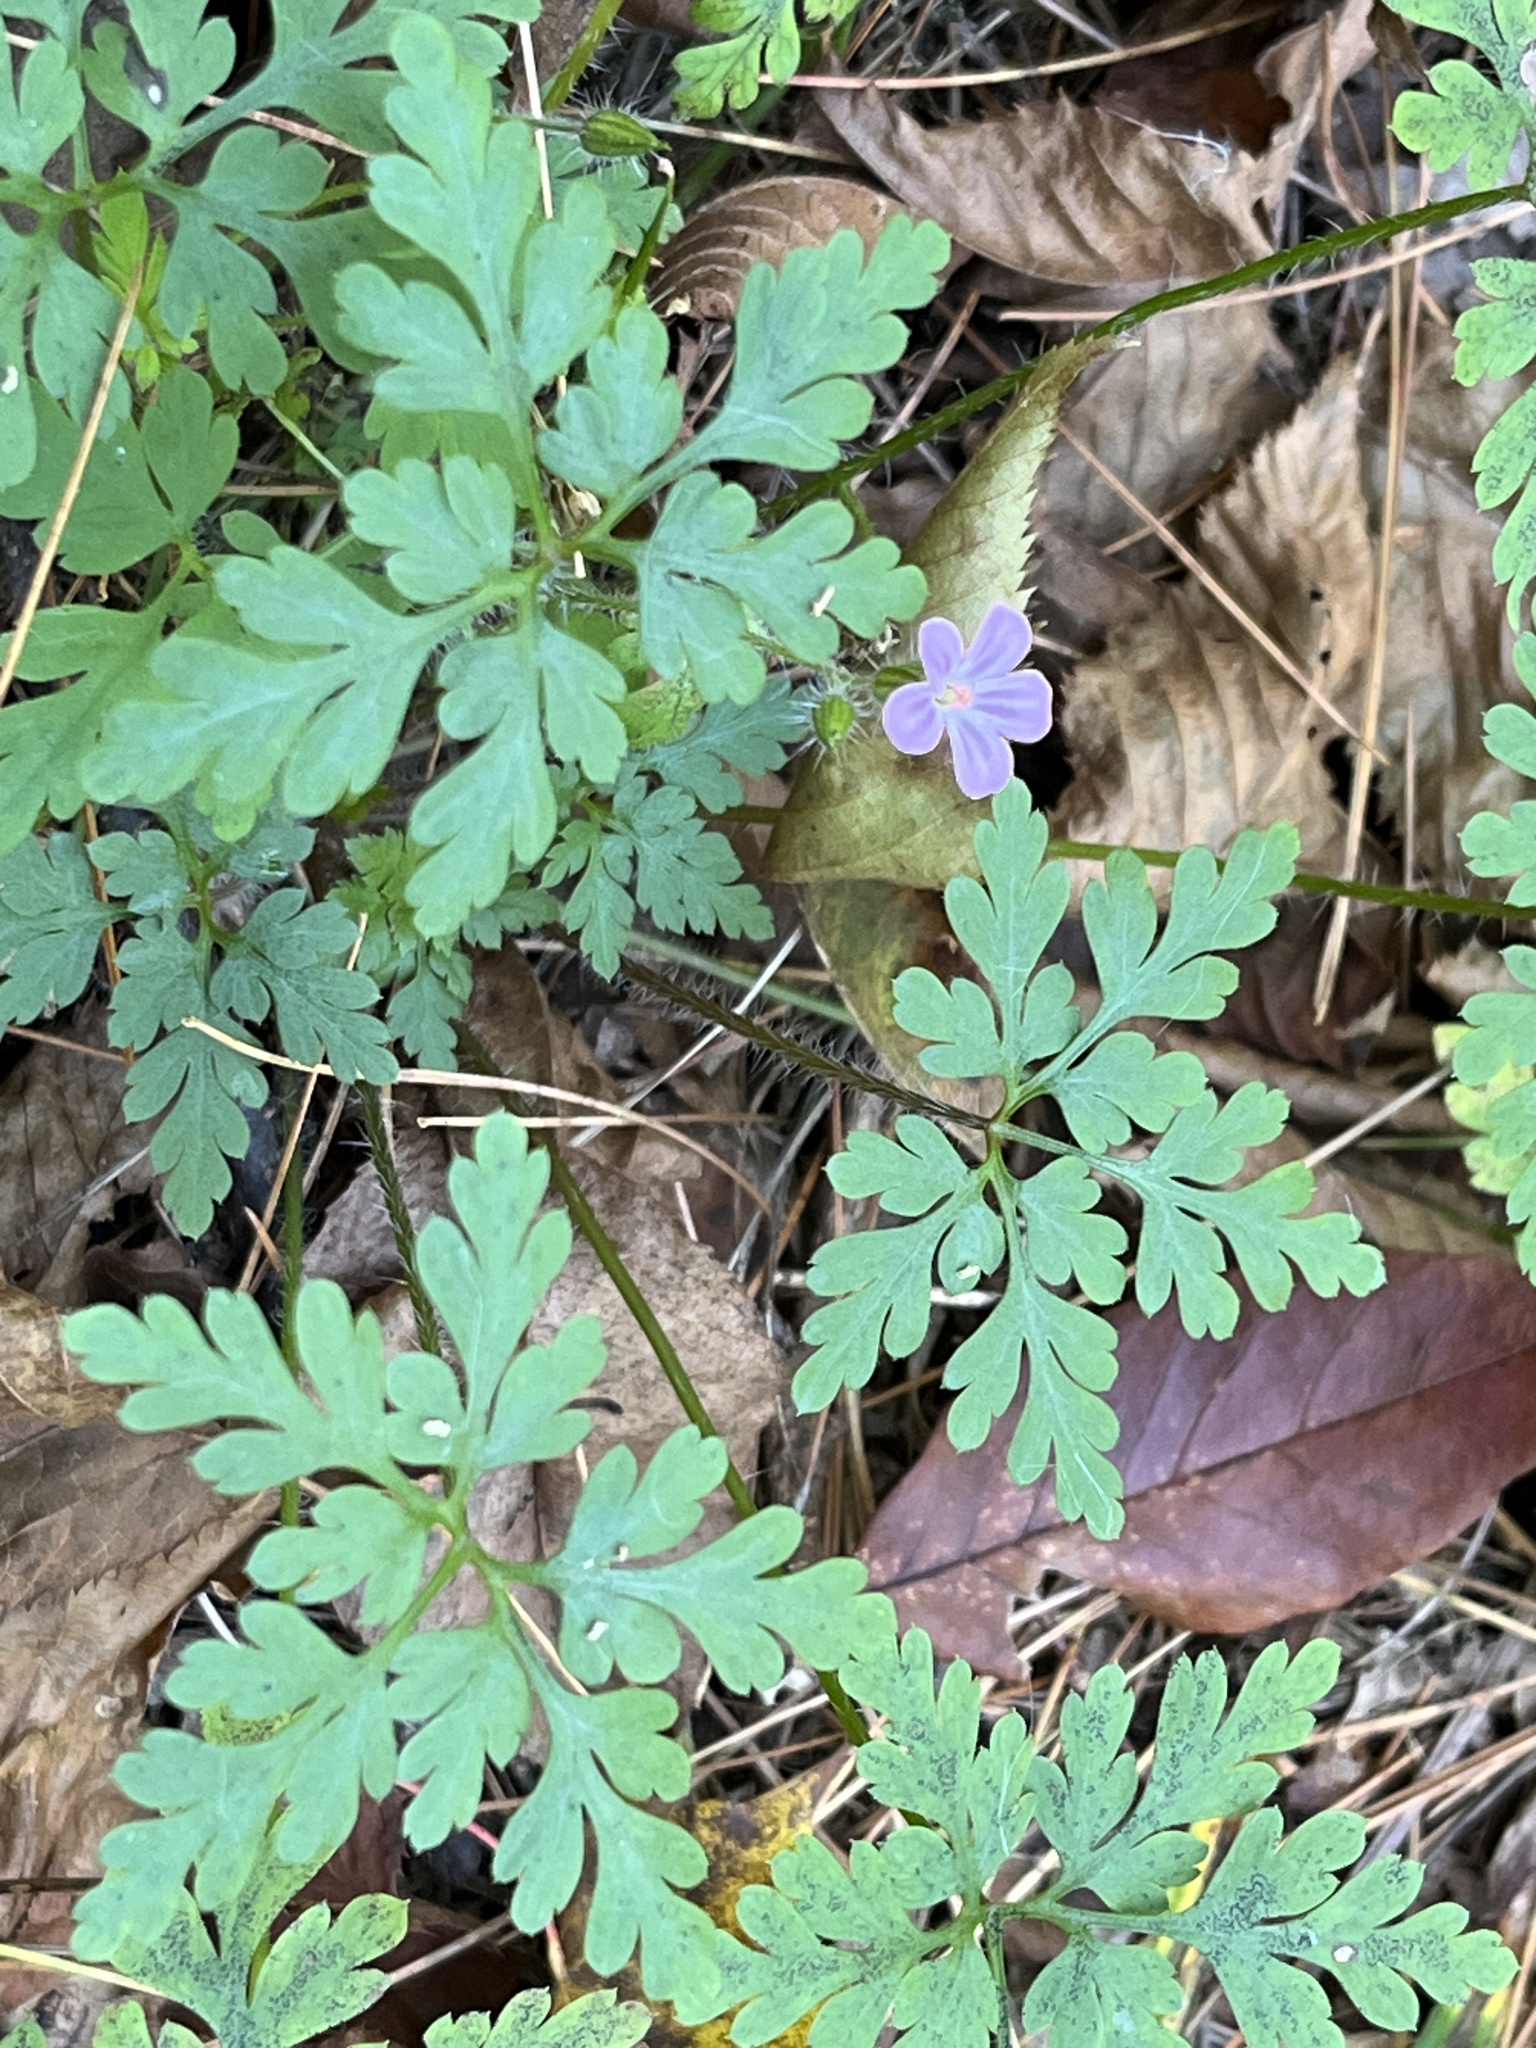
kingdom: Plantae
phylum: Tracheophyta
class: Magnoliopsida
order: Geraniales
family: Geraniaceae
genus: Geranium
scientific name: Geranium robertianum
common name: Herb-robert
